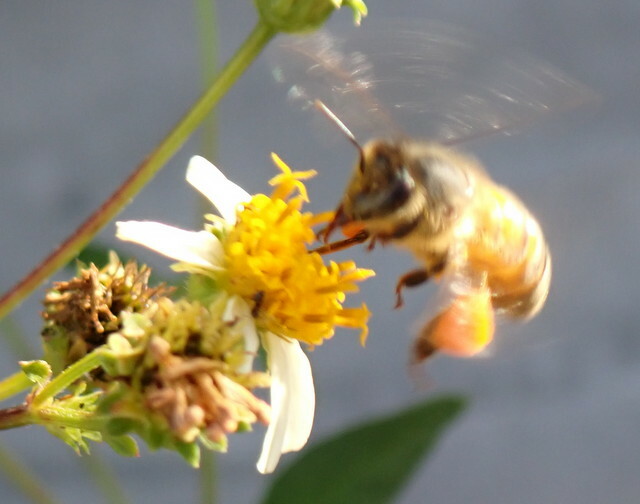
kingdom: Animalia
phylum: Arthropoda
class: Insecta
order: Hymenoptera
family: Apidae
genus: Apis
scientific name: Apis mellifera
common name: Honey bee
